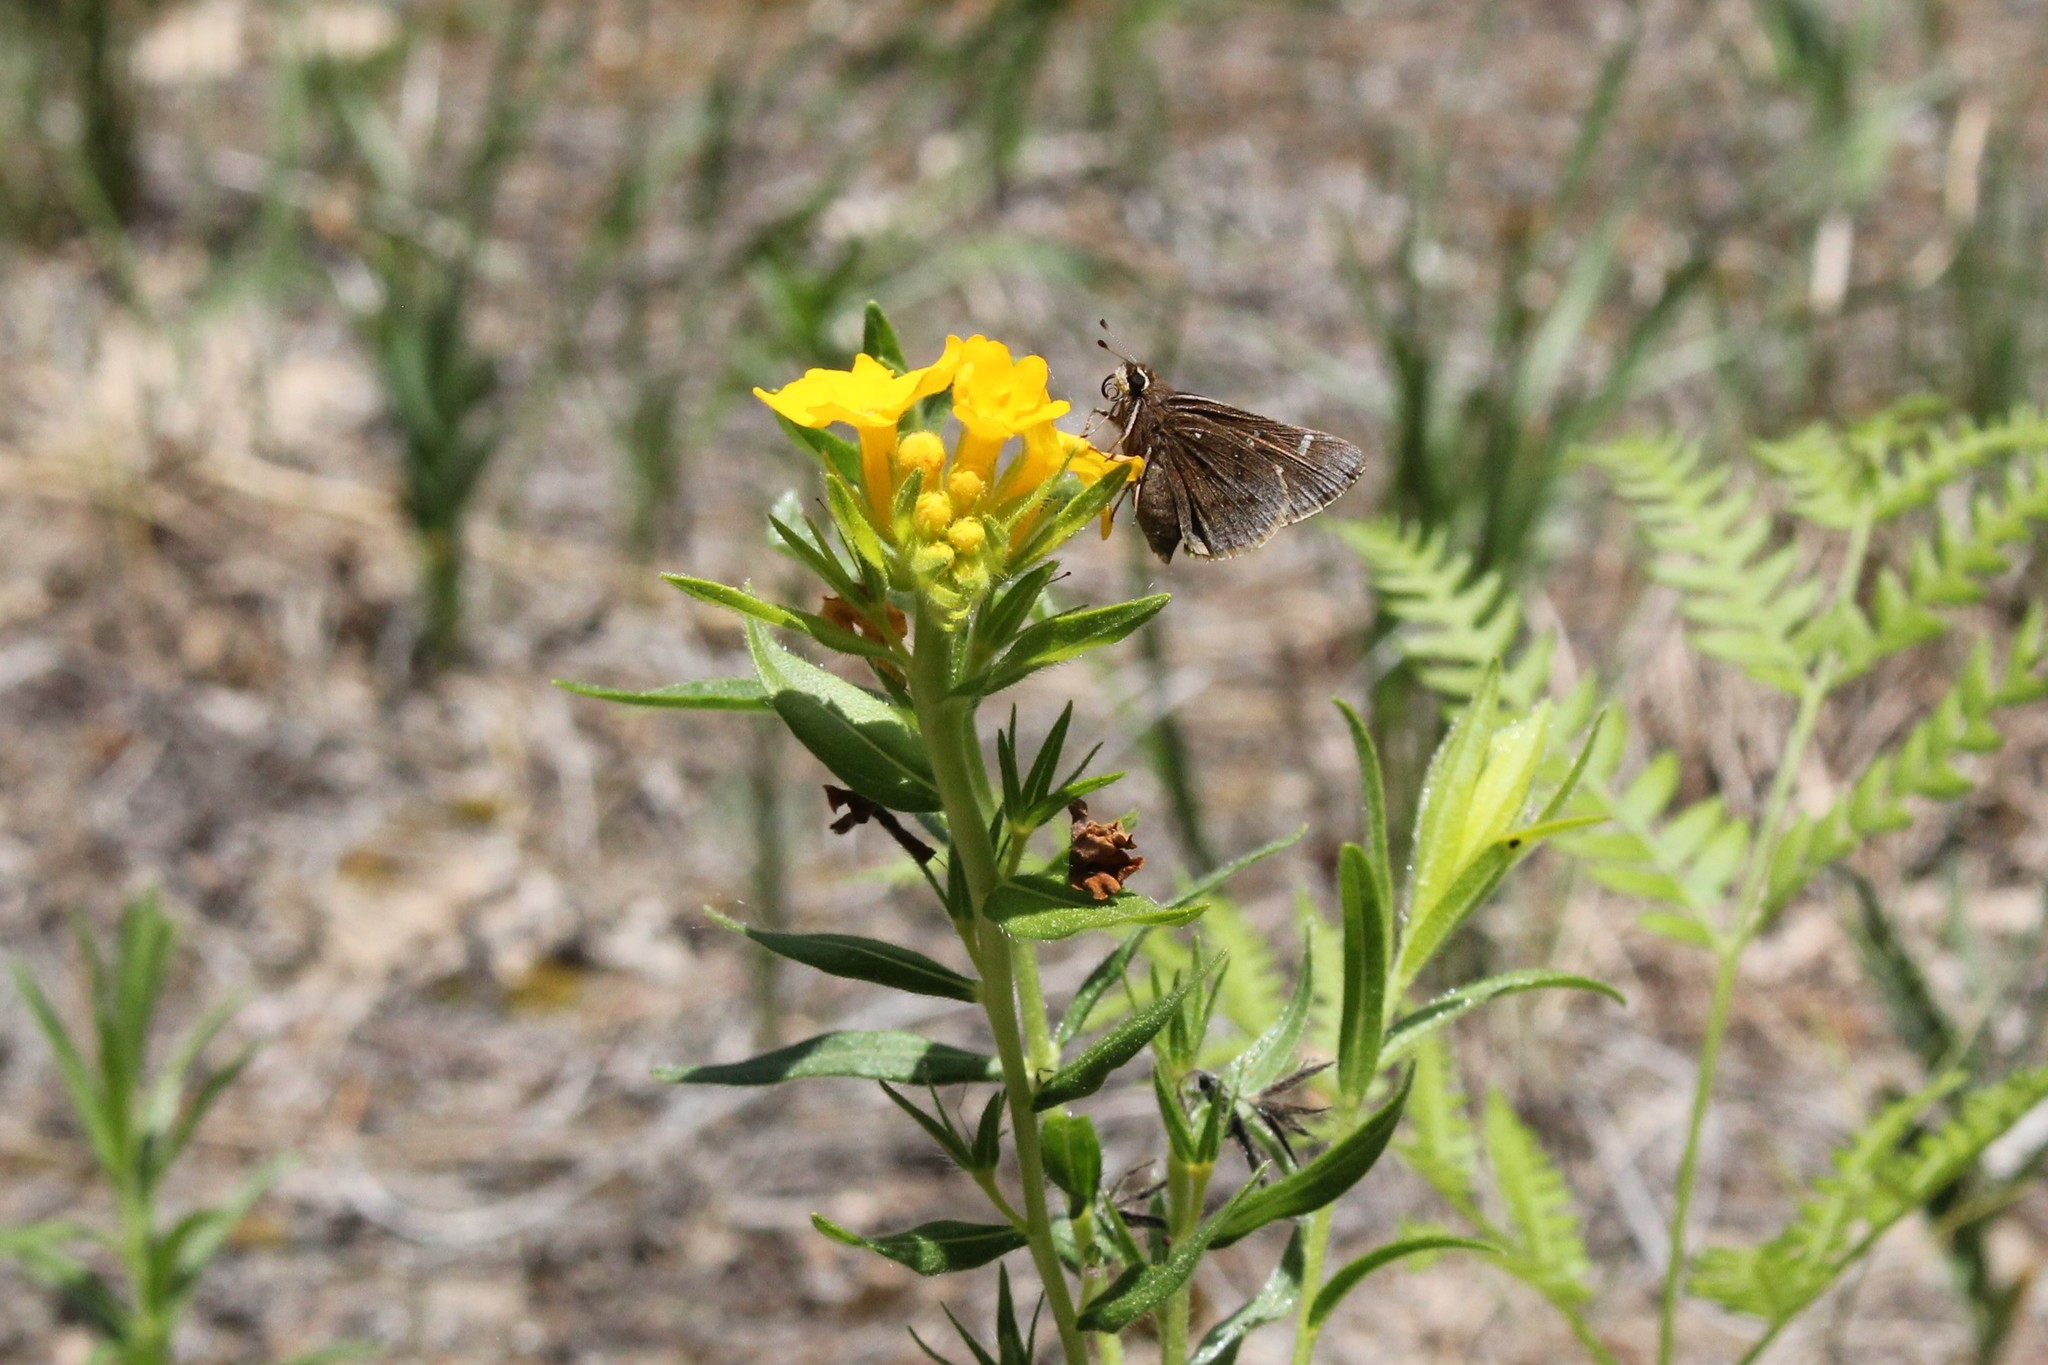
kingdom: Animalia
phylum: Arthropoda
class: Insecta
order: Lepidoptera
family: Hesperiidae
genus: Atrytonopsis
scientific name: Atrytonopsis hianna
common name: Dusted skipper
